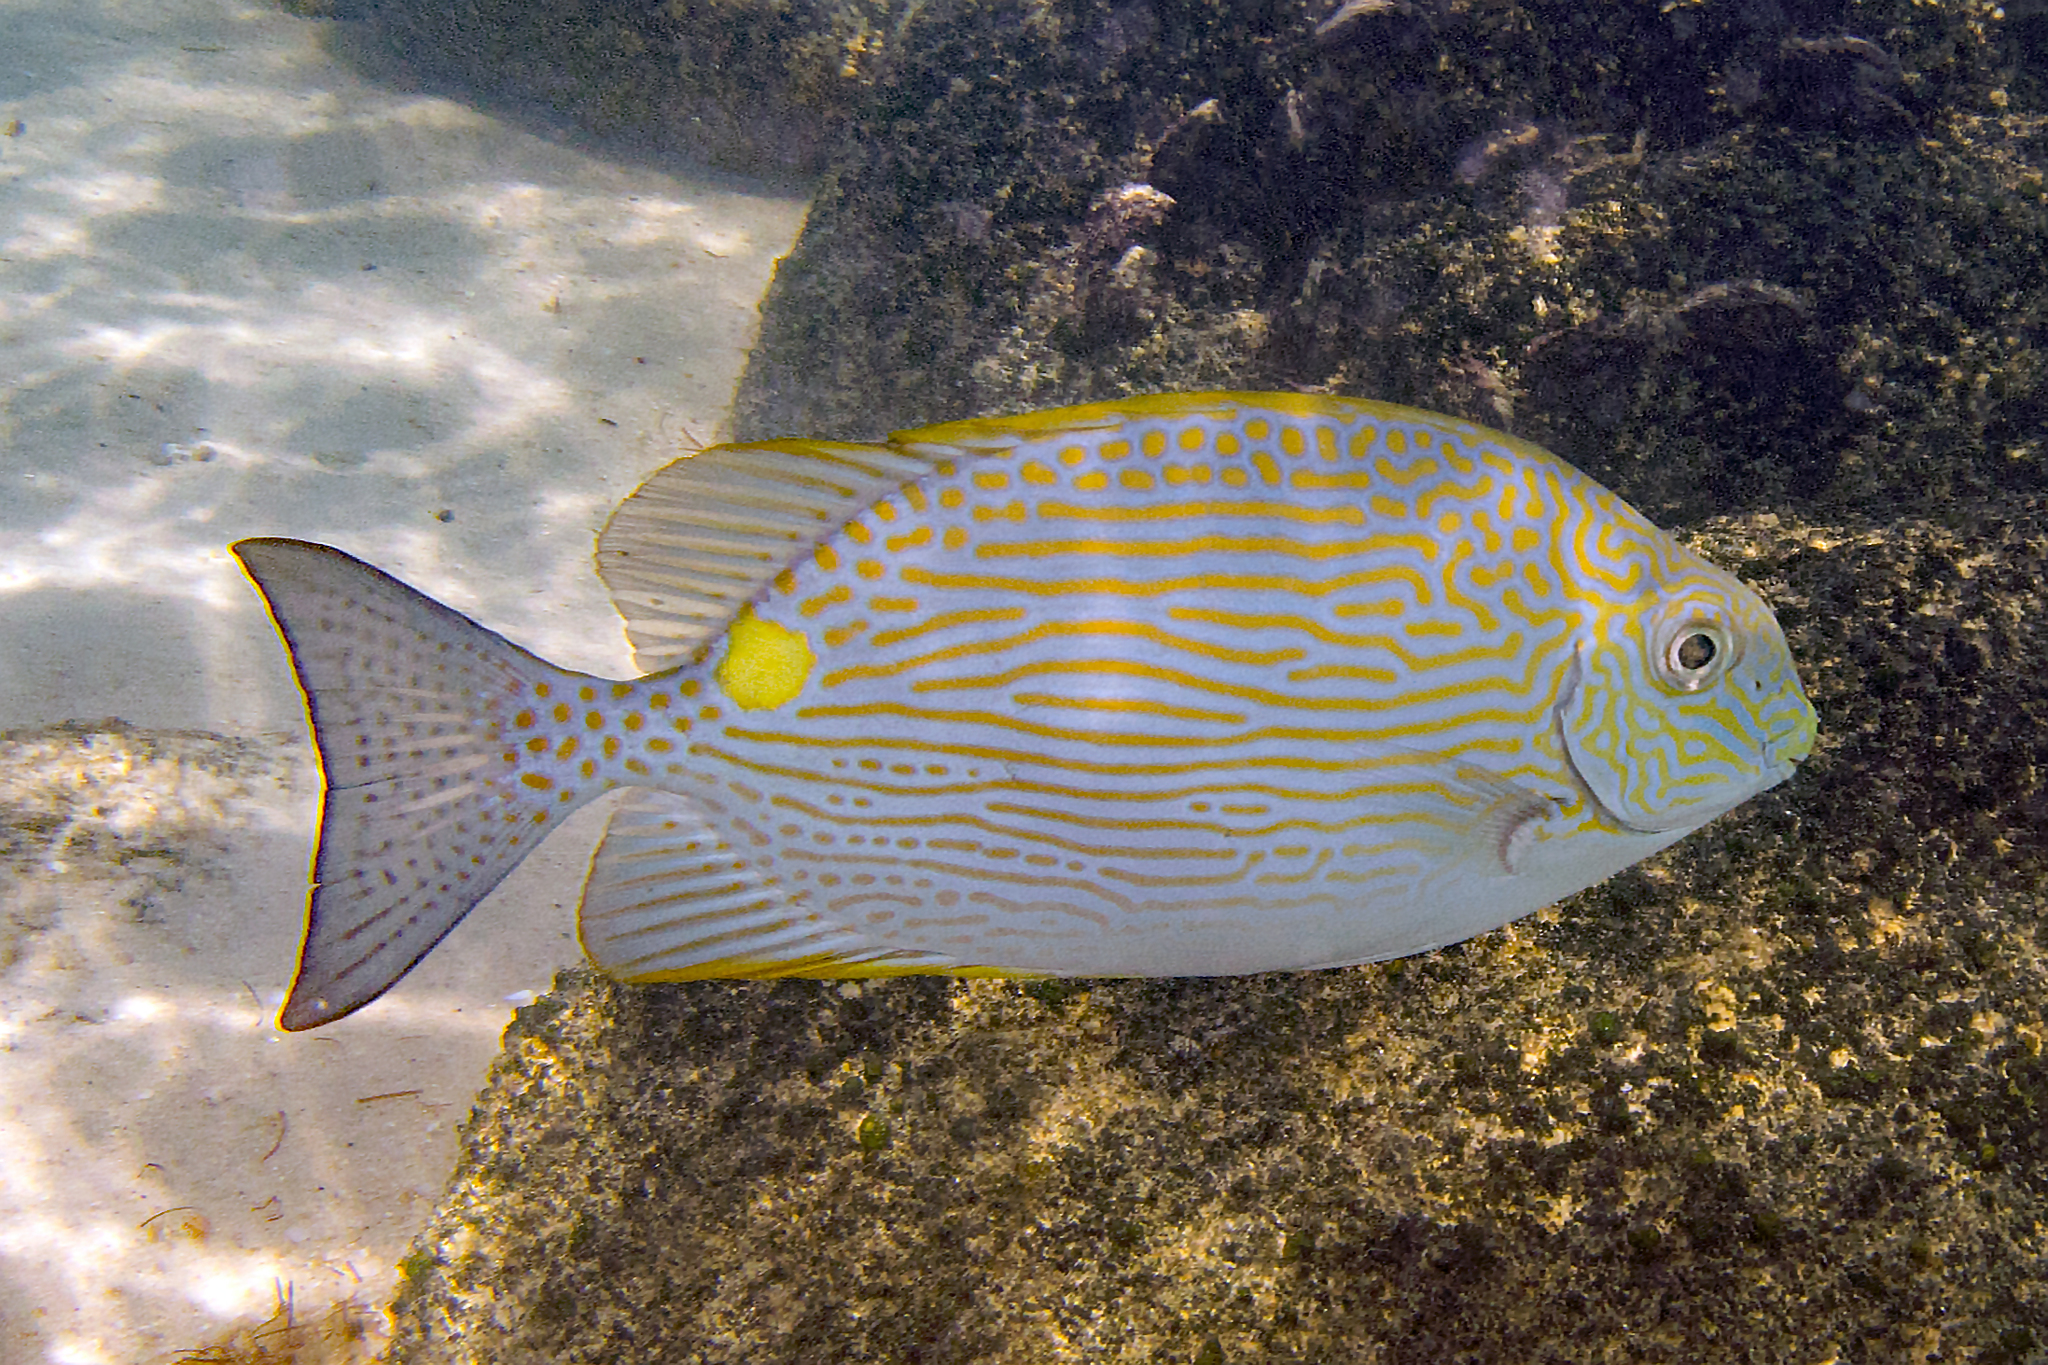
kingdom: Animalia
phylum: Chordata
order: Perciformes
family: Siganidae
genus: Siganus
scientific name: Siganus lineatus
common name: Lined rabbitfish
